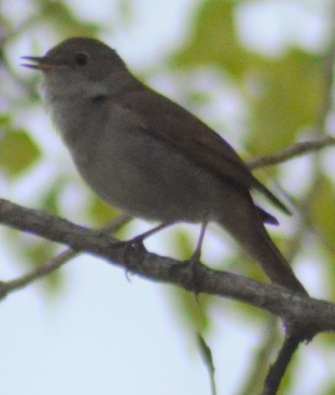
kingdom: Animalia
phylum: Chordata
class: Aves
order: Passeriformes
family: Muscicapidae
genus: Luscinia
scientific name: Luscinia megarhynchos
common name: Common nightingale
